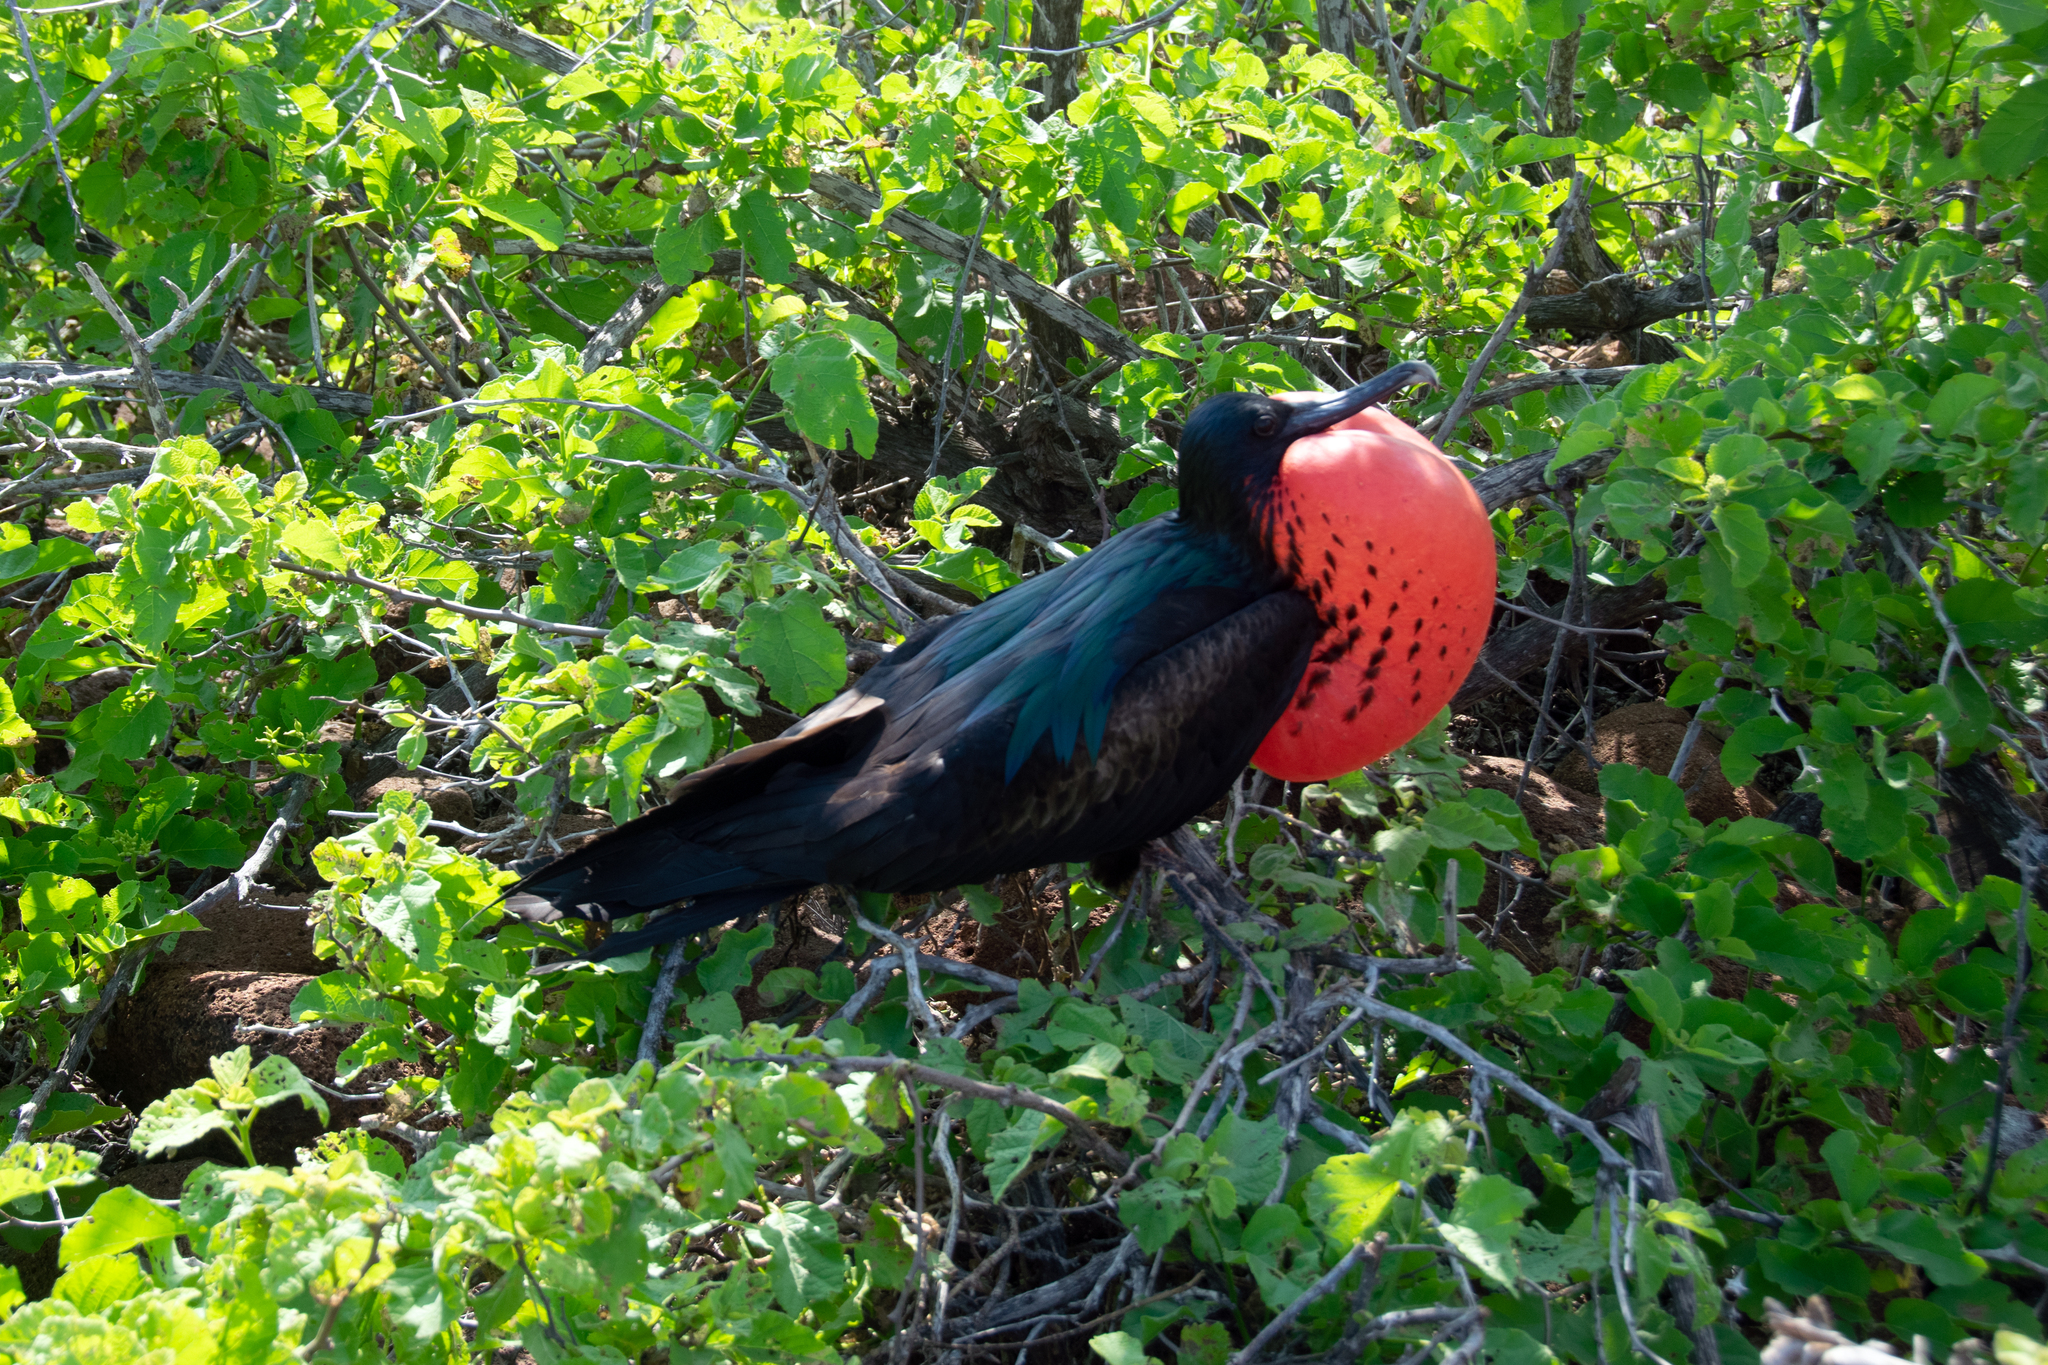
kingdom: Animalia
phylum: Chordata
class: Aves
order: Suliformes
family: Fregatidae
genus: Fregata
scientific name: Fregata minor
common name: Great frigatebird
